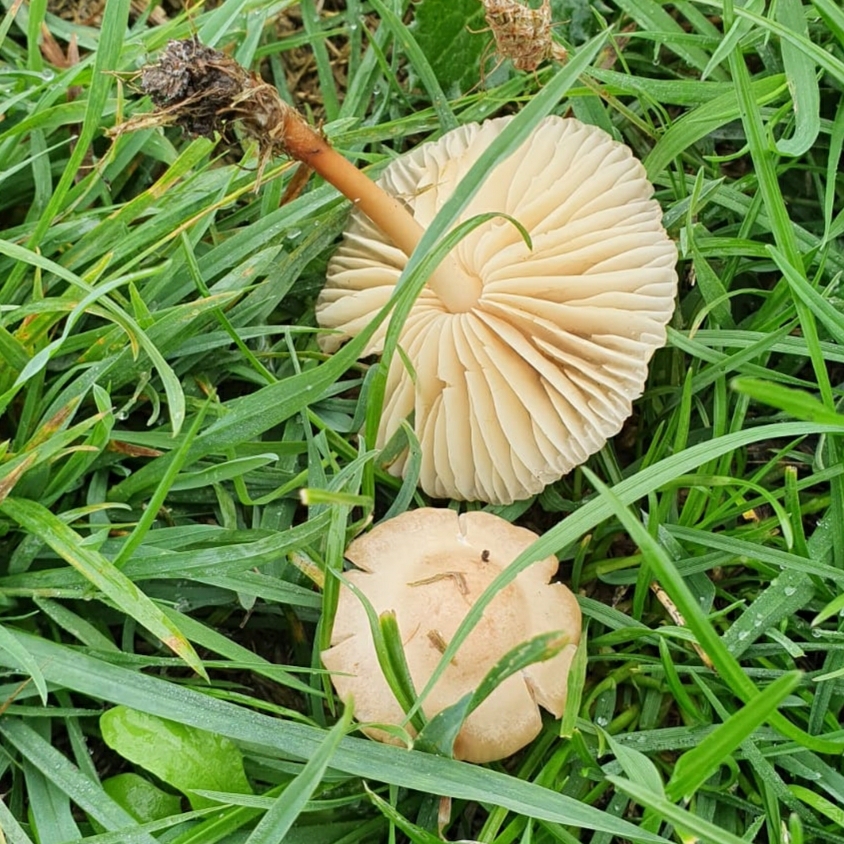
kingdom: Fungi
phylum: Basidiomycota
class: Agaricomycetes
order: Agaricales
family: Marasmiaceae
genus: Marasmius
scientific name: Marasmius oreades
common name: Fairy ring champignon
